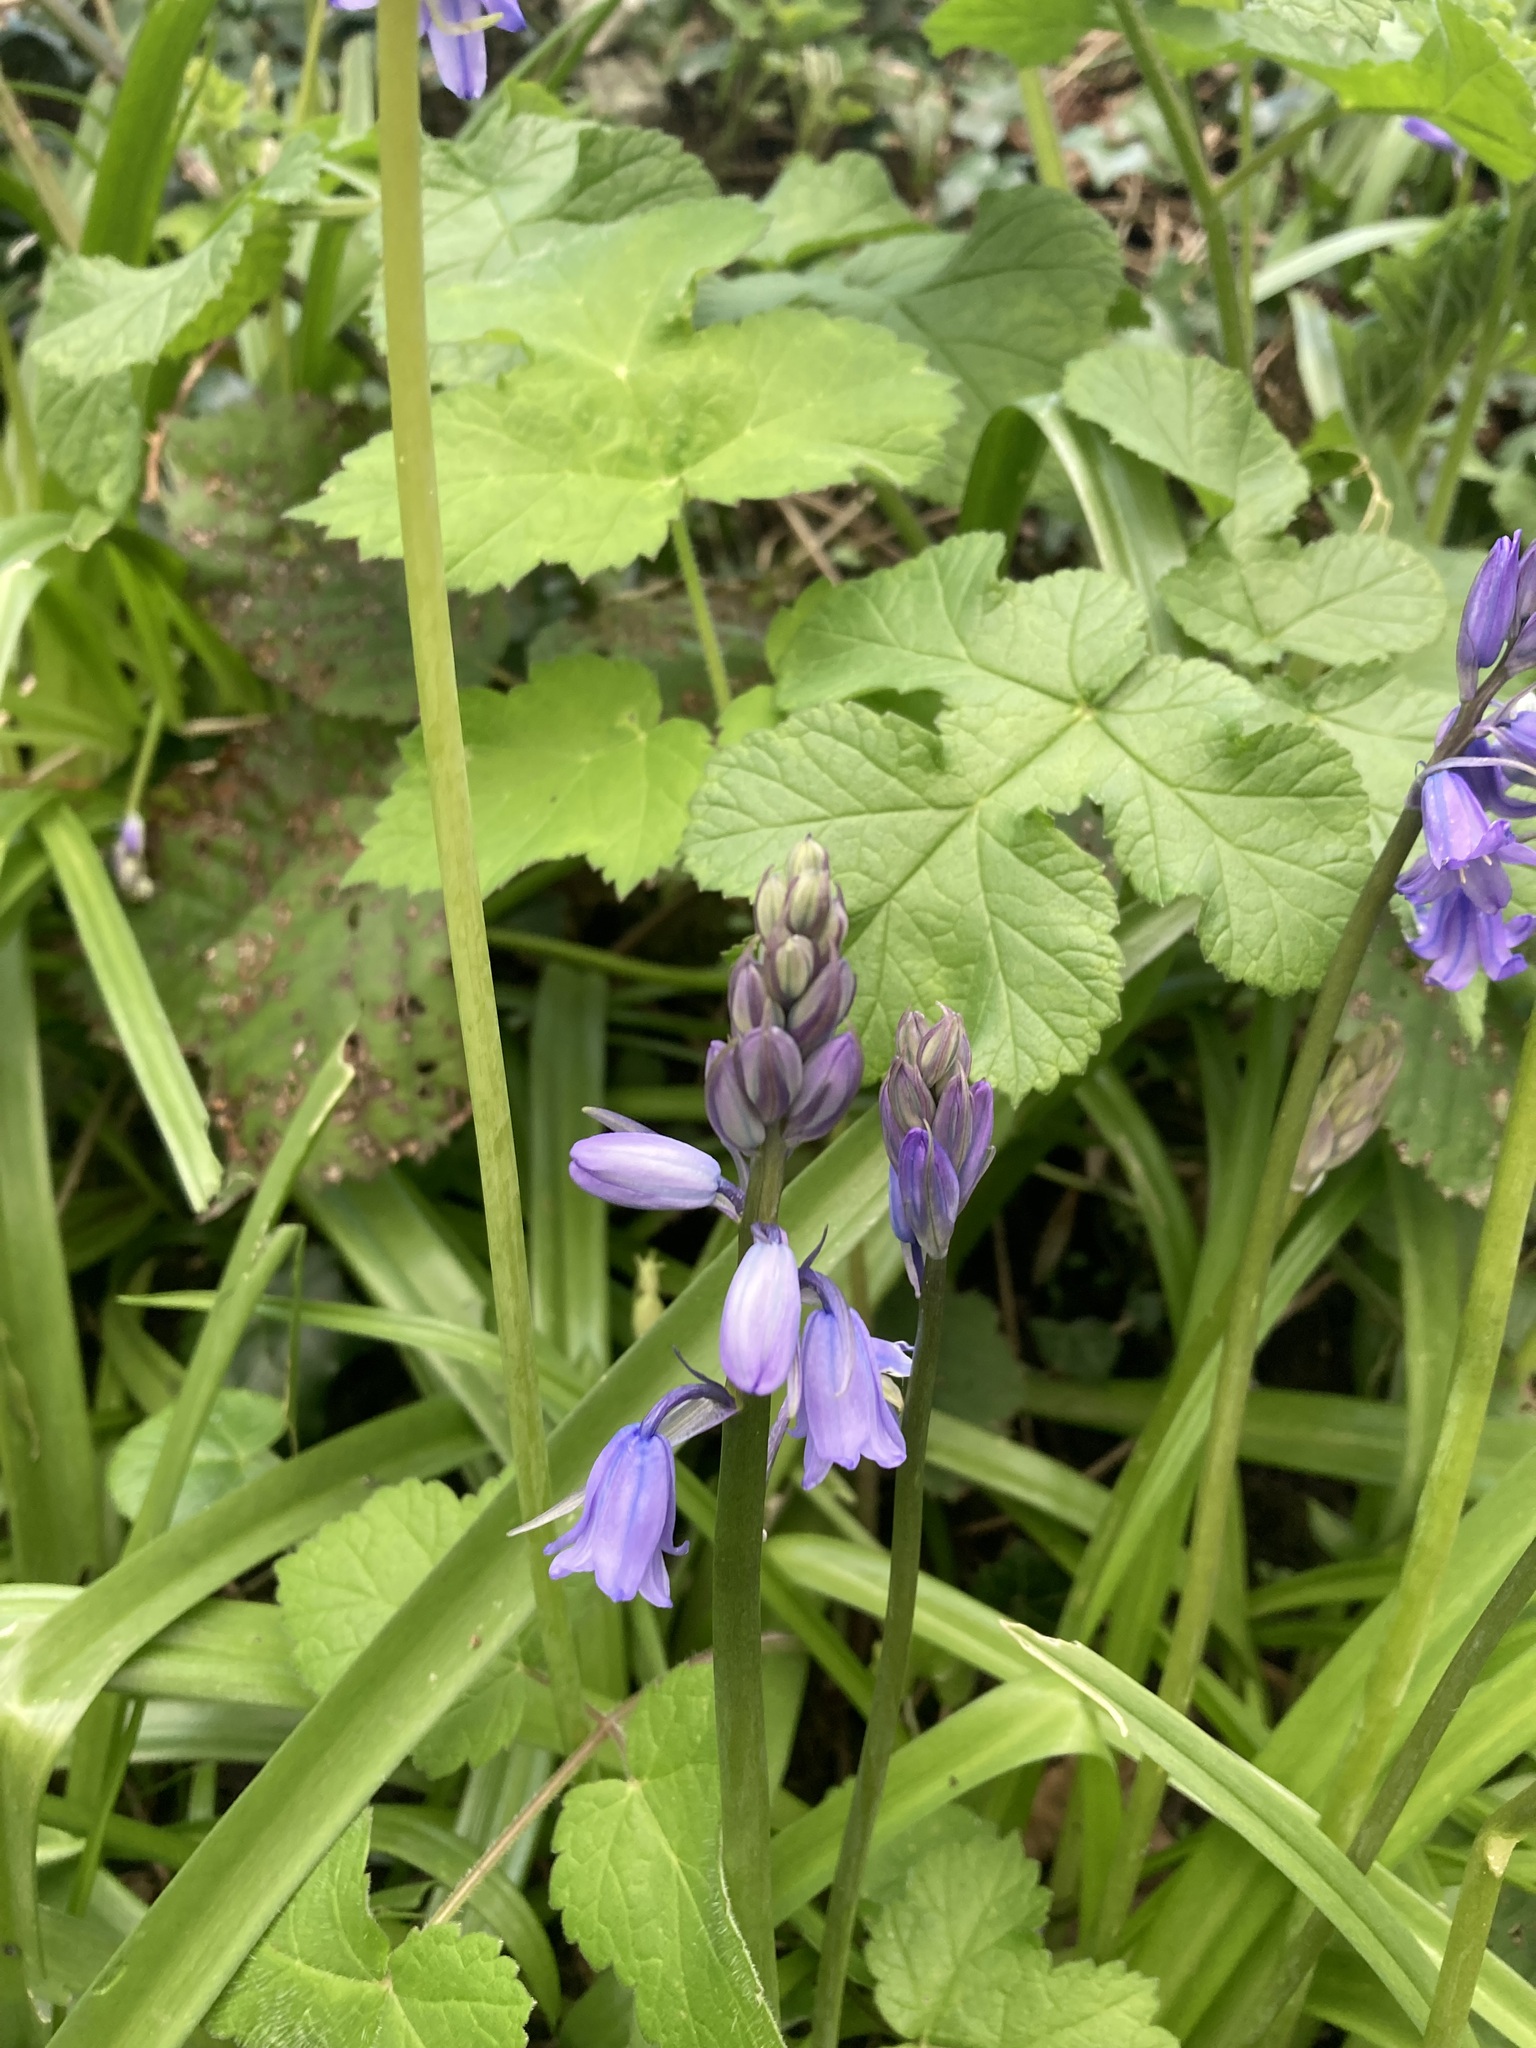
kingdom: Plantae
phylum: Tracheophyta
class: Liliopsida
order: Asparagales
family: Asparagaceae
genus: Hyacinthoides
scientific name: Hyacinthoides massartiana
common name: Hyacinthoides
